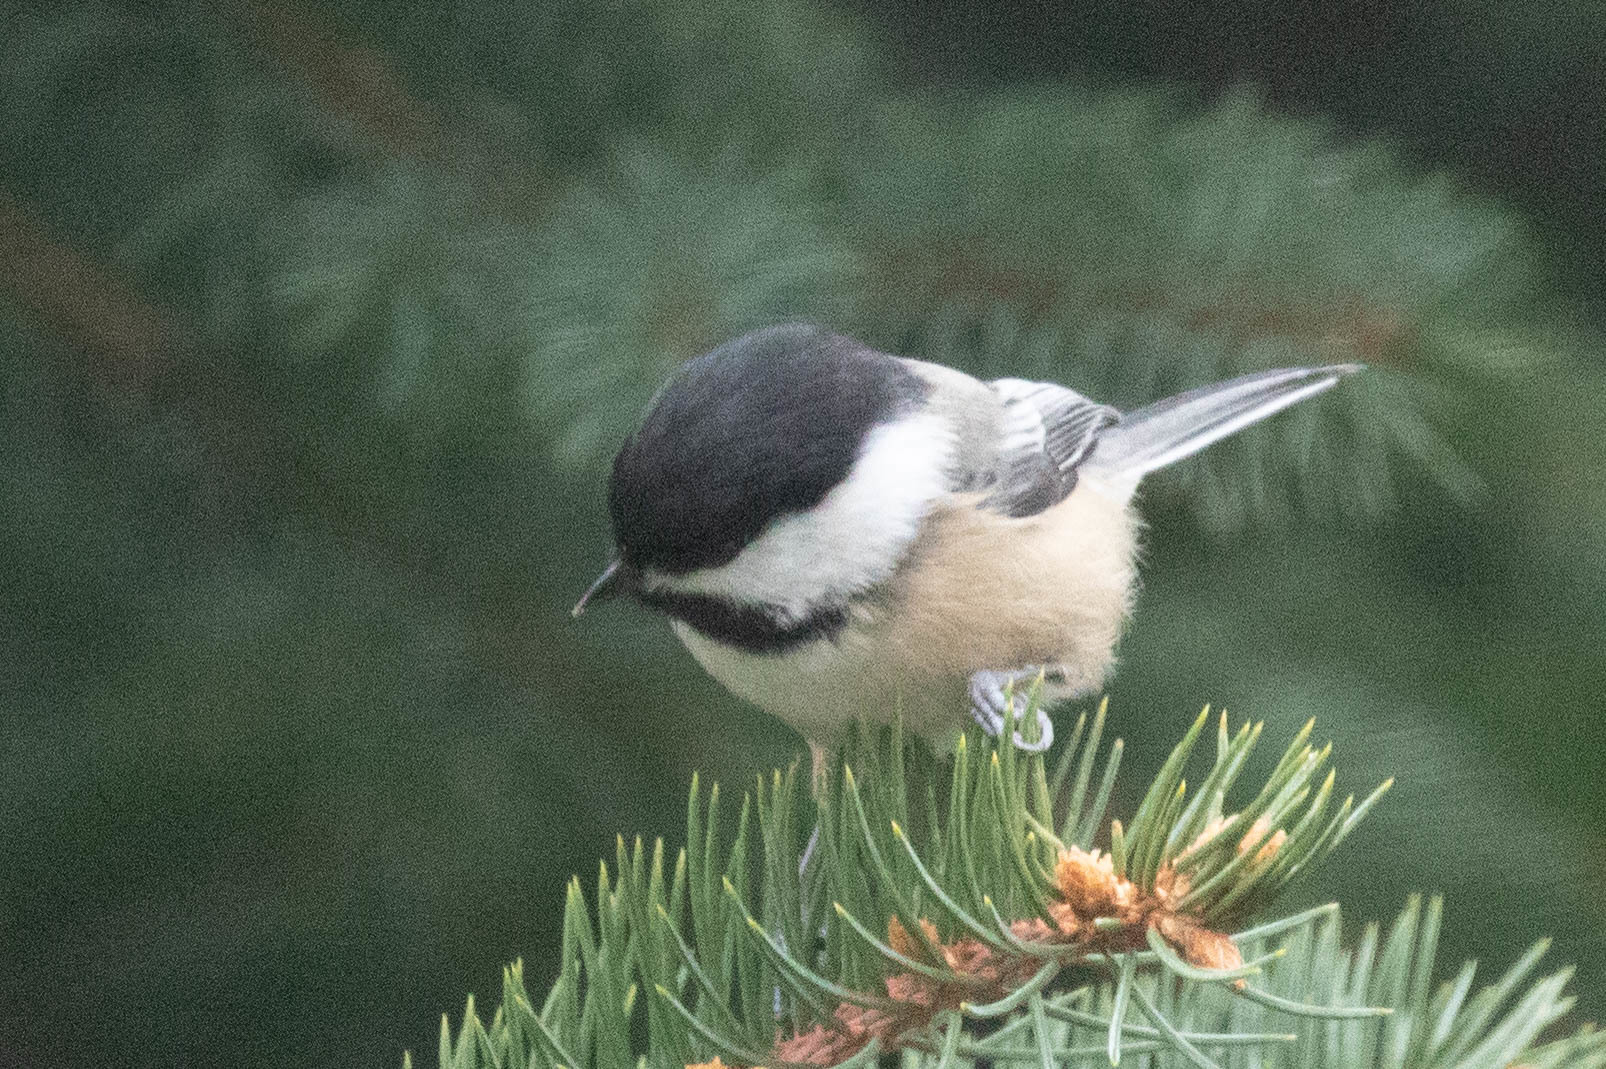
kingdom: Animalia
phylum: Chordata
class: Aves
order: Passeriformes
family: Paridae
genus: Poecile
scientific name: Poecile atricapillus
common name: Black-capped chickadee
